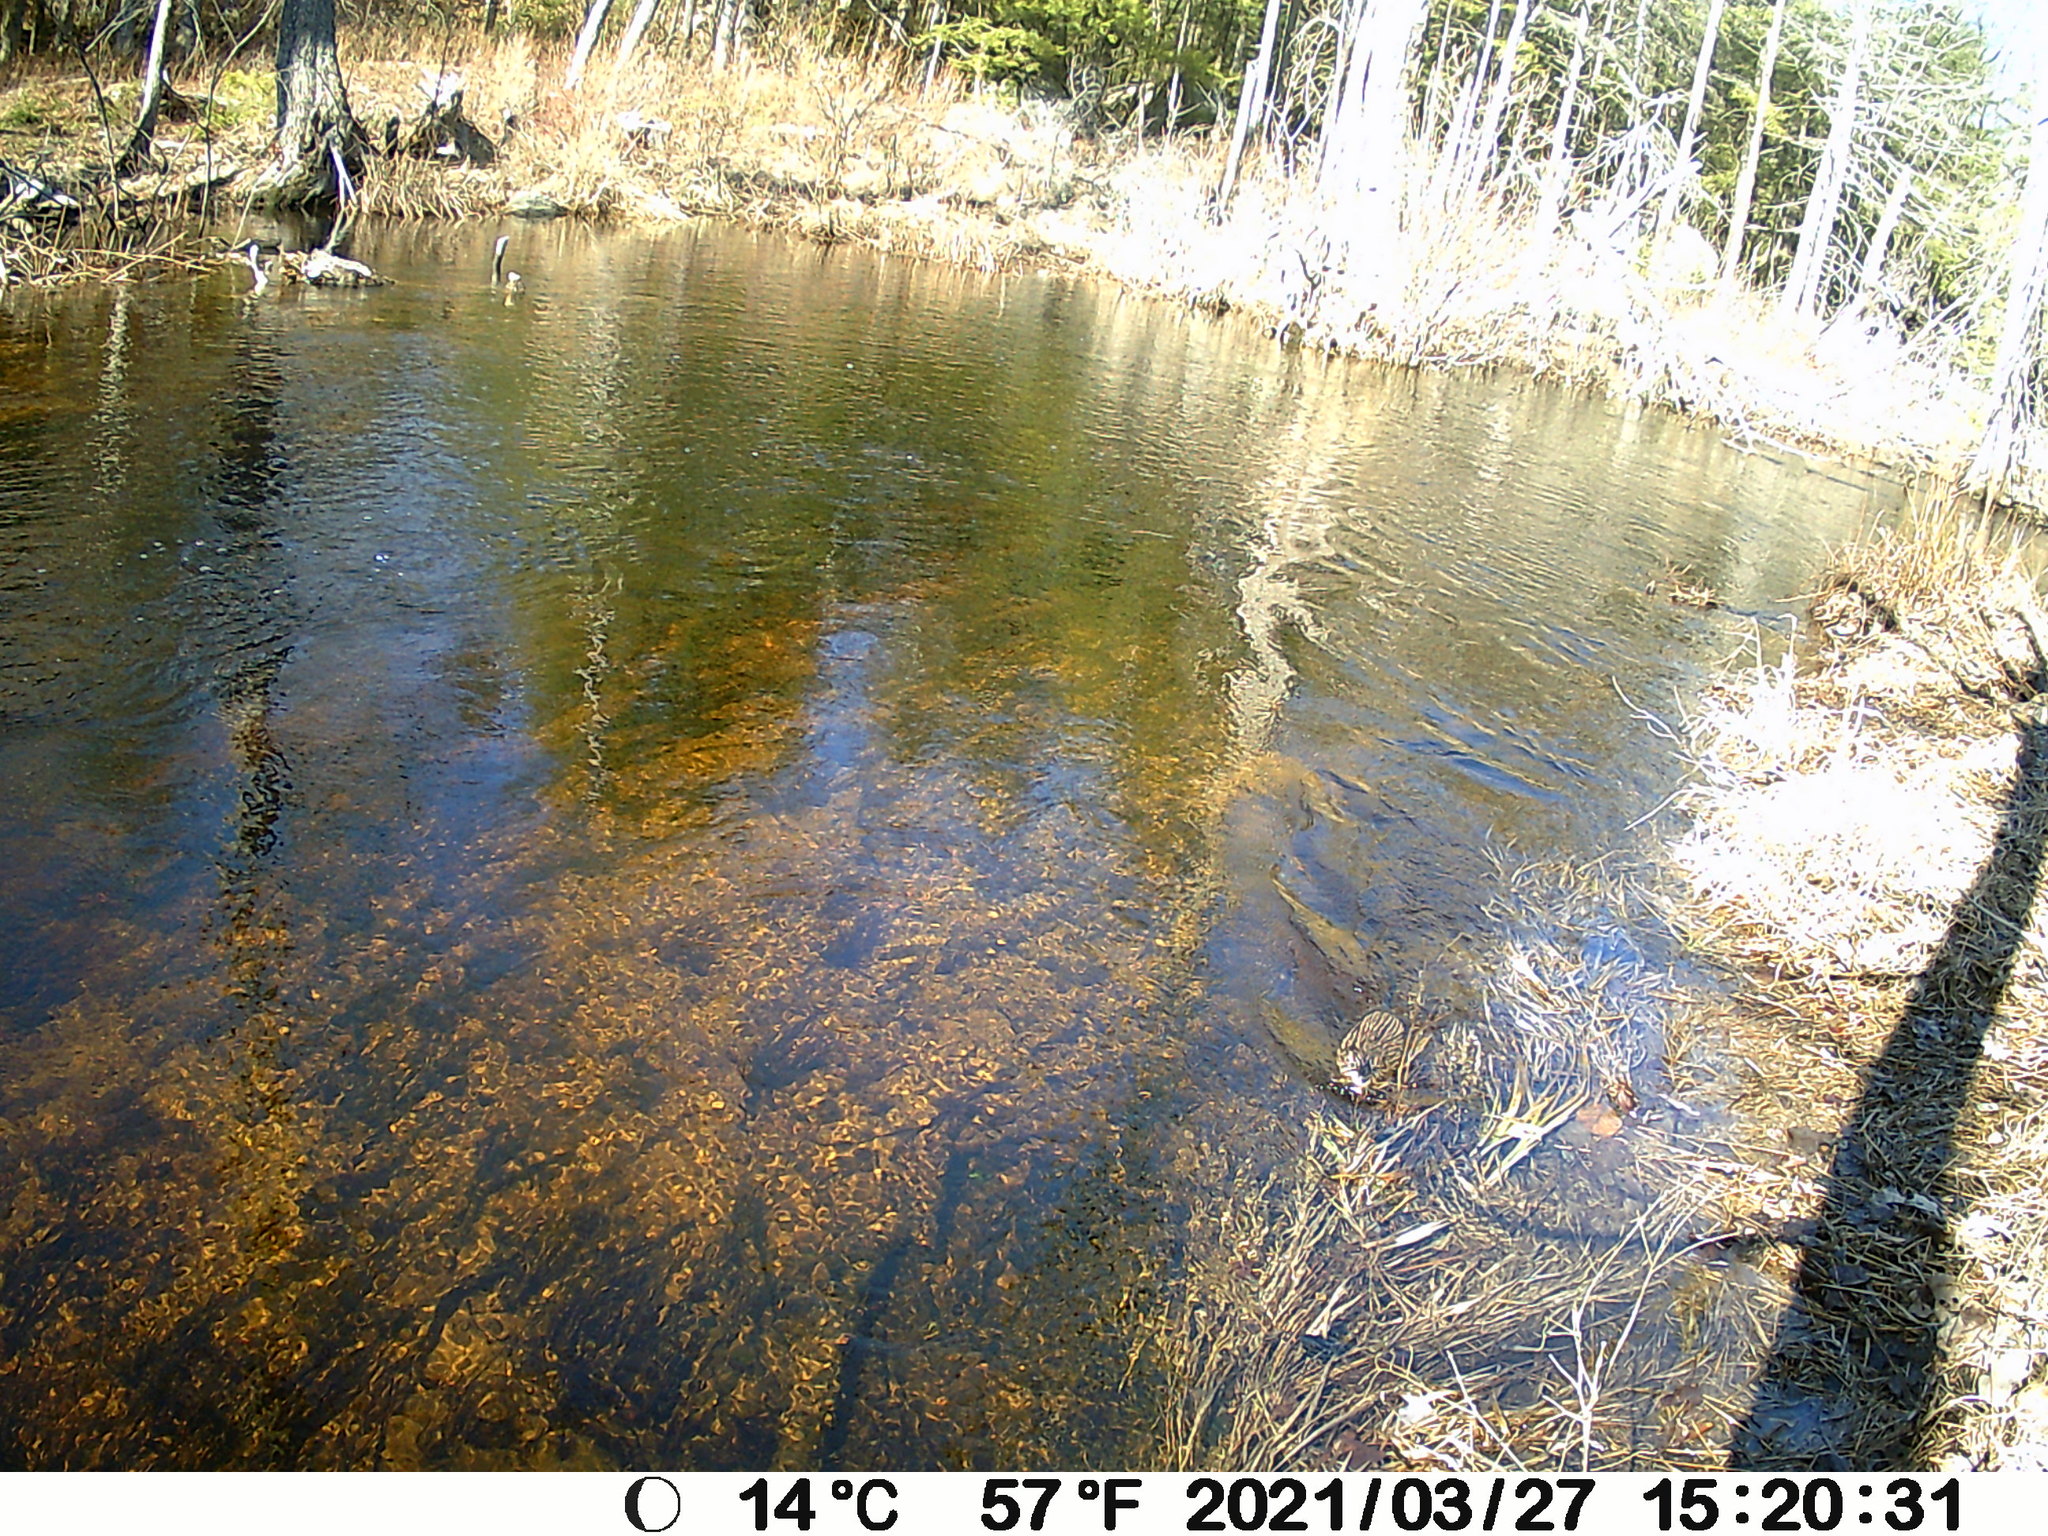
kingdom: Animalia
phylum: Chordata
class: Mammalia
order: Rodentia
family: Cricetidae
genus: Ondatra
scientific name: Ondatra zibethicus
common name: Muskrat
